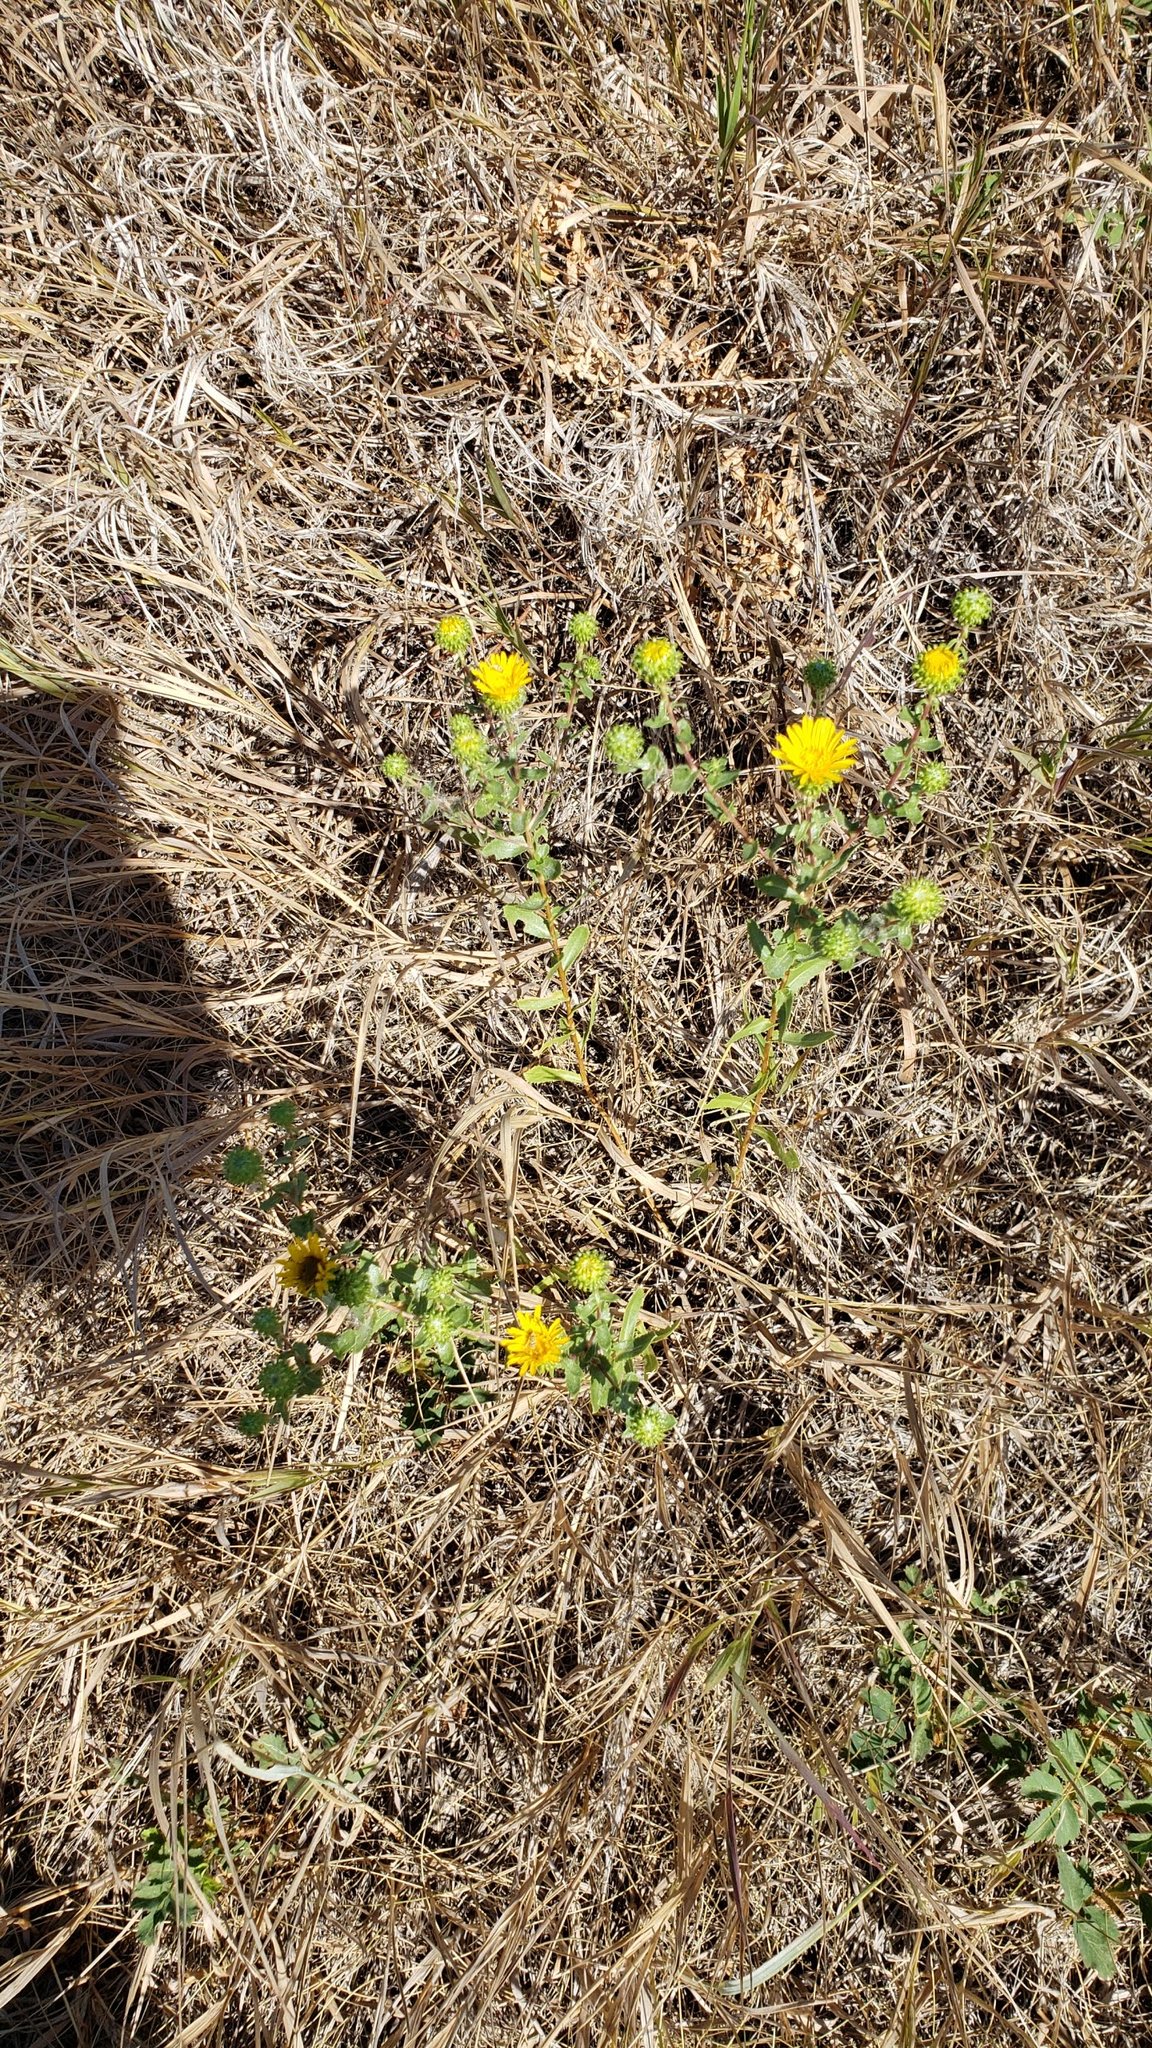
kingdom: Plantae
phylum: Tracheophyta
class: Magnoliopsida
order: Asterales
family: Asteraceae
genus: Grindelia
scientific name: Grindelia squarrosa
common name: Curly-cup gumweed
